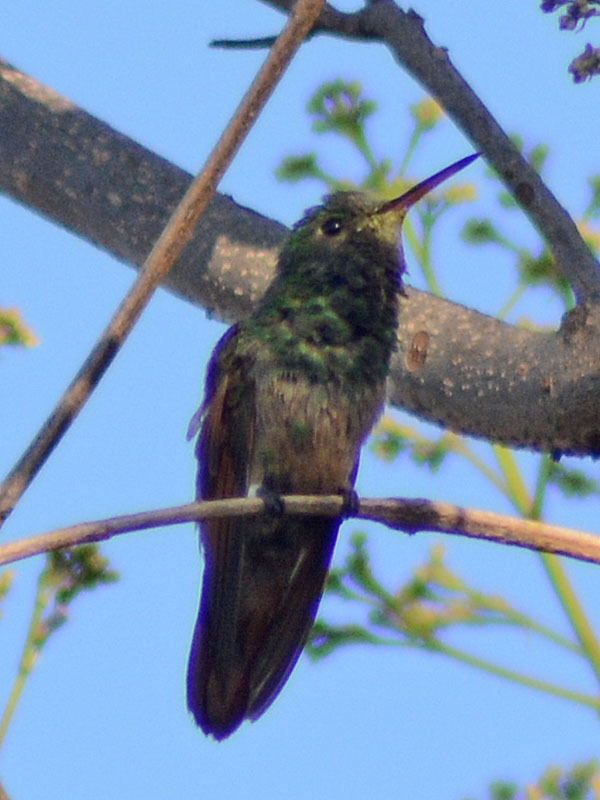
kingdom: Animalia
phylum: Chordata
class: Aves
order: Apodiformes
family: Trochilidae
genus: Saucerottia
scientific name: Saucerottia beryllina
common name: Berylline hummingbird
